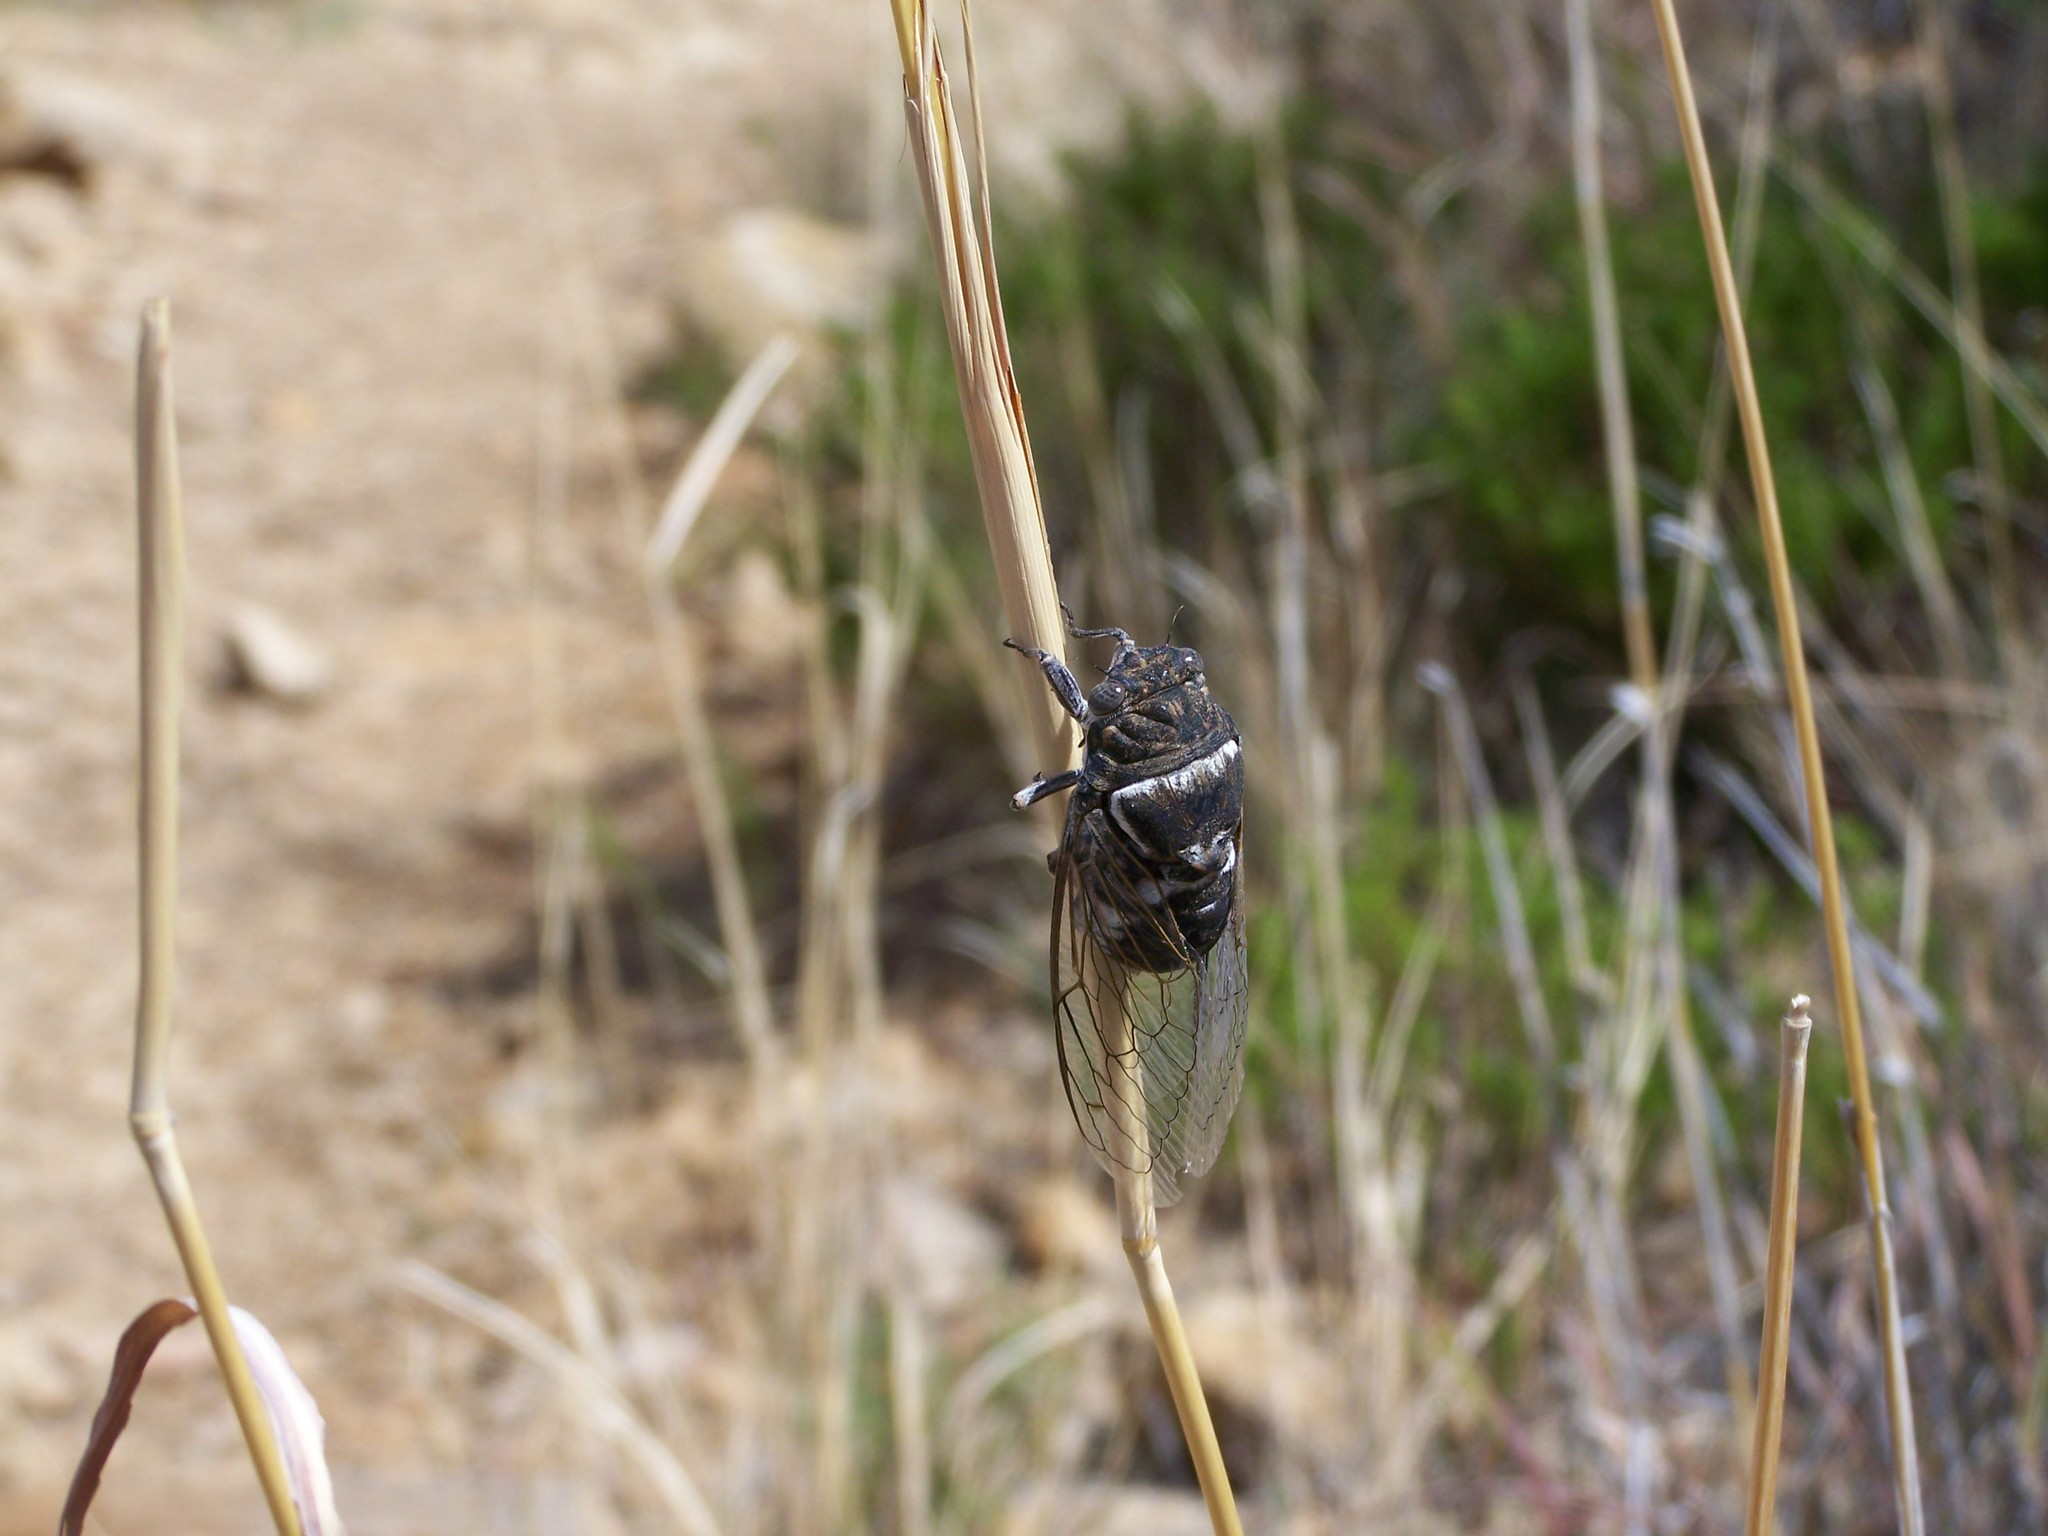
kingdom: Animalia
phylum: Arthropoda
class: Insecta
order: Hemiptera
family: Cicadidae
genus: Cacama
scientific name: Cacama valvata
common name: Cactus dodger
